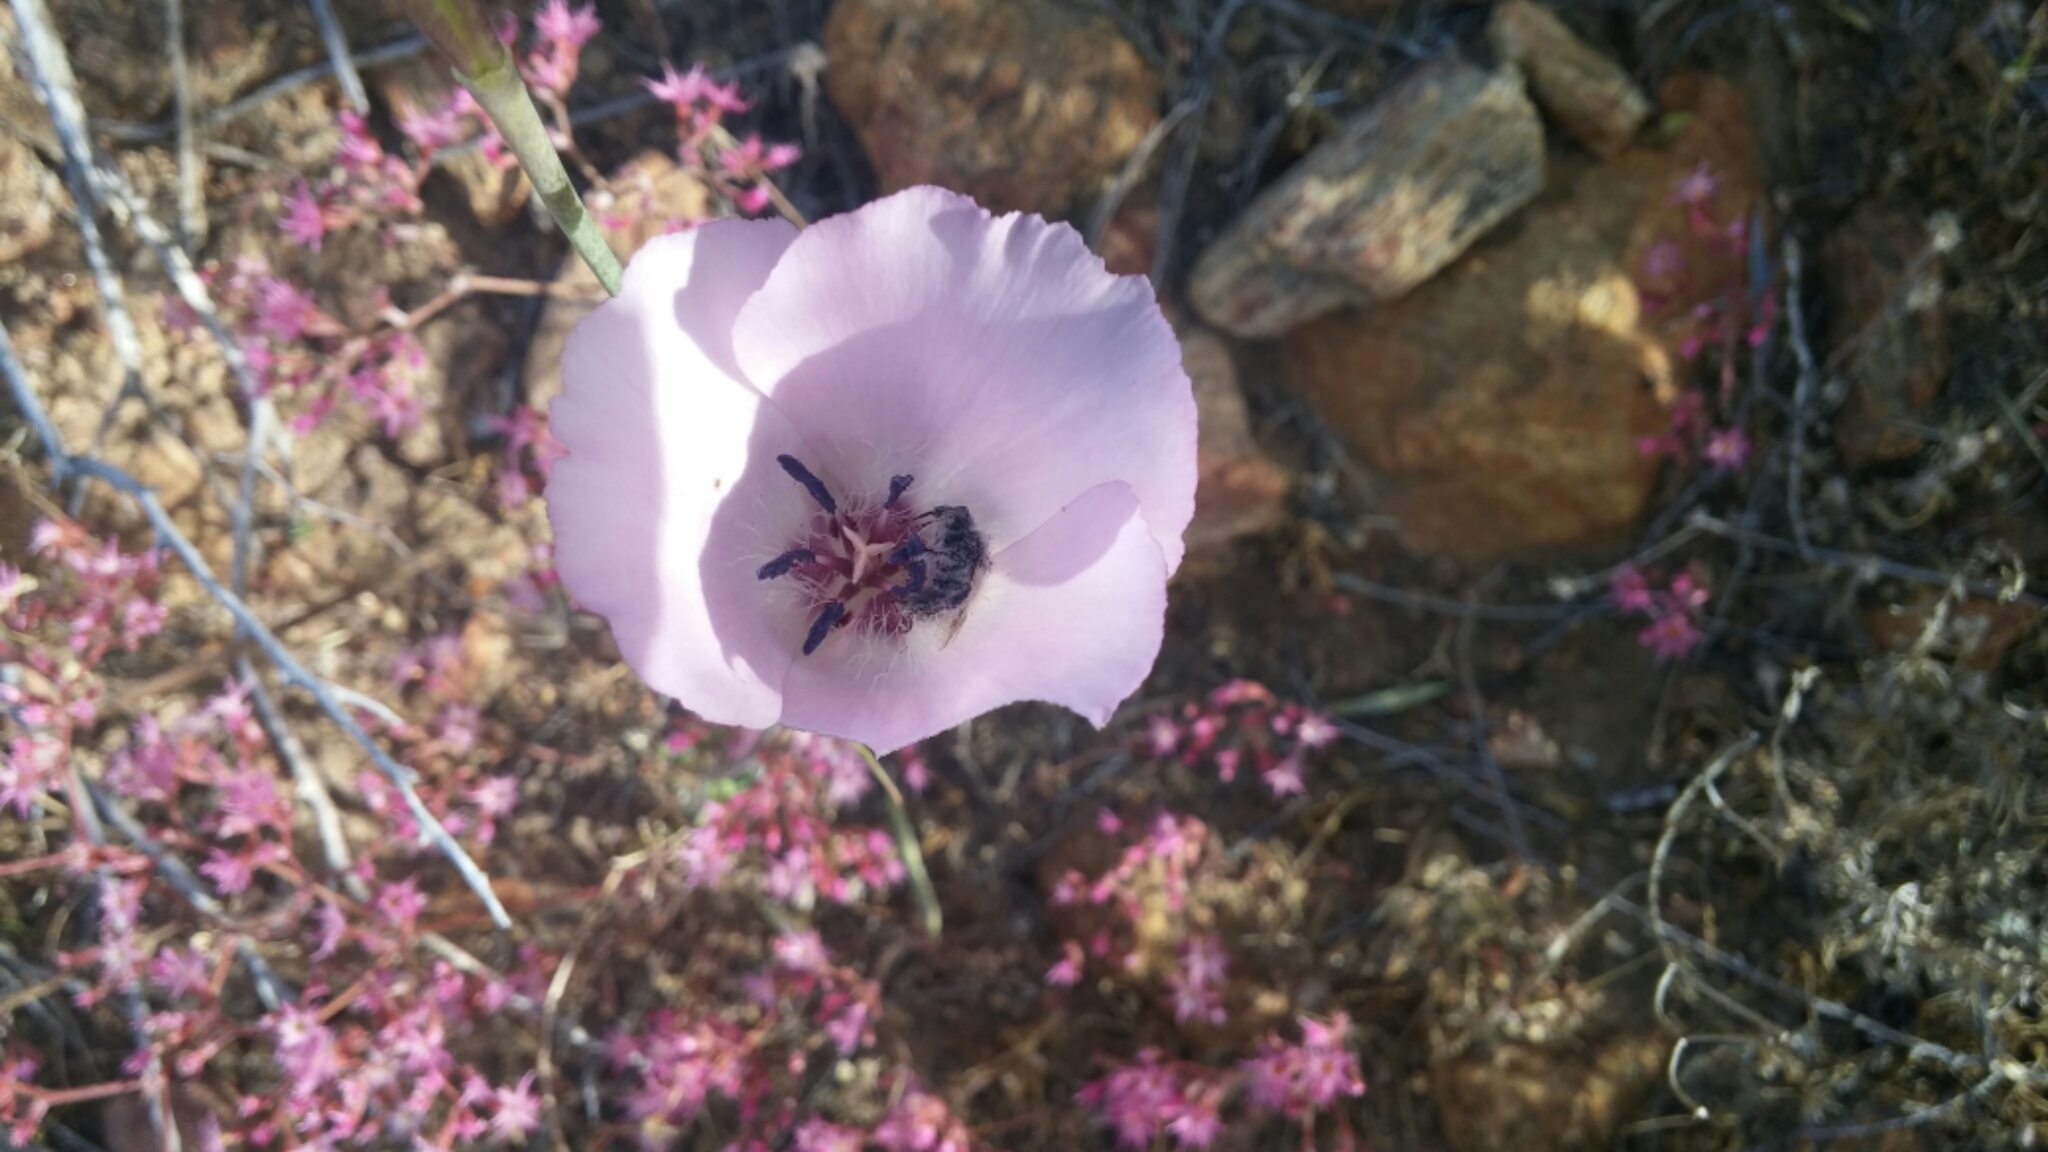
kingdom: Plantae
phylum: Tracheophyta
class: Liliopsida
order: Liliales
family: Liliaceae
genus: Calochortus
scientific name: Calochortus splendens
